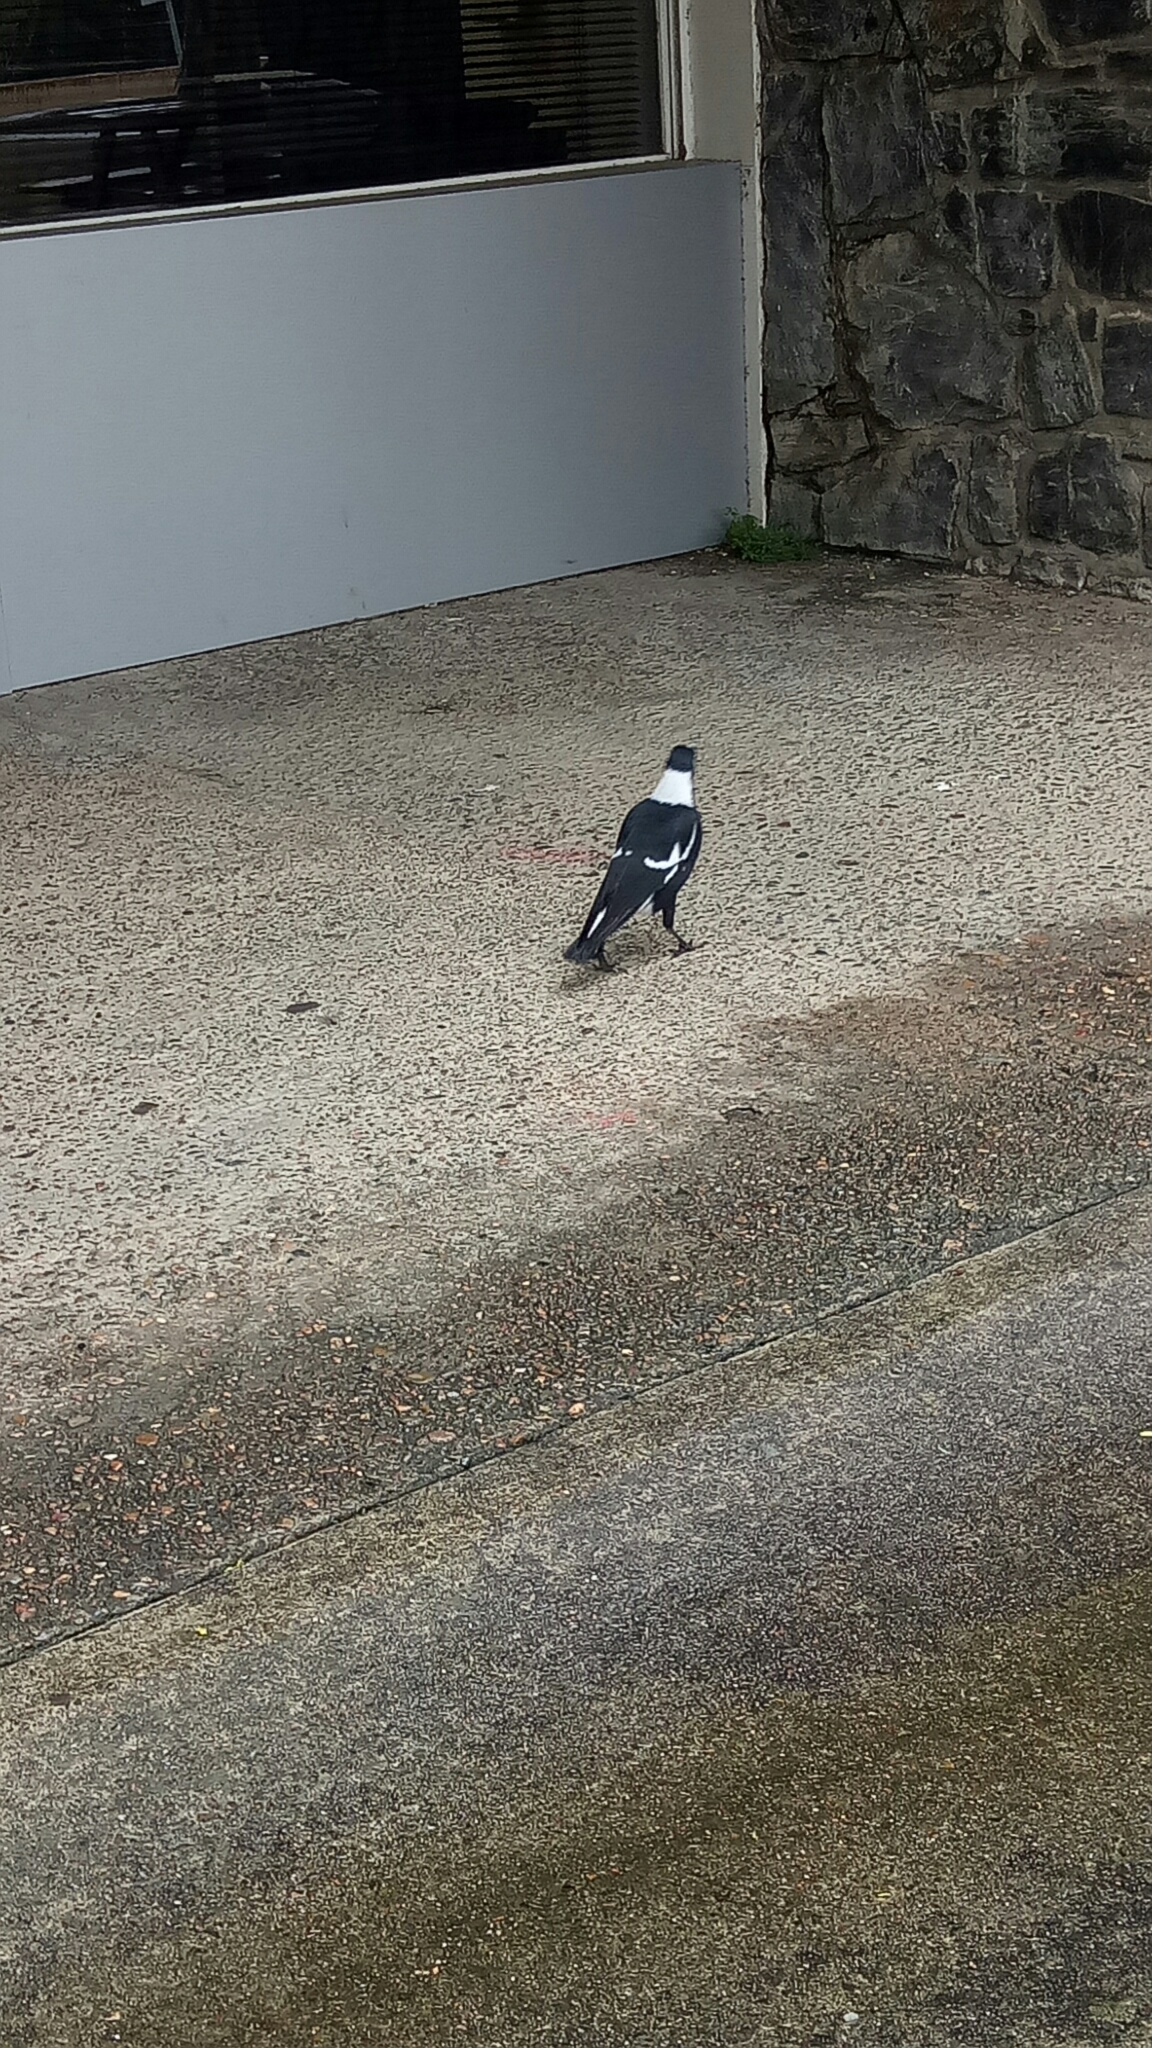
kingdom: Animalia
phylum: Chordata
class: Aves
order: Passeriformes
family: Cracticidae
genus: Gymnorhina
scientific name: Gymnorhina tibicen
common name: Australian magpie
